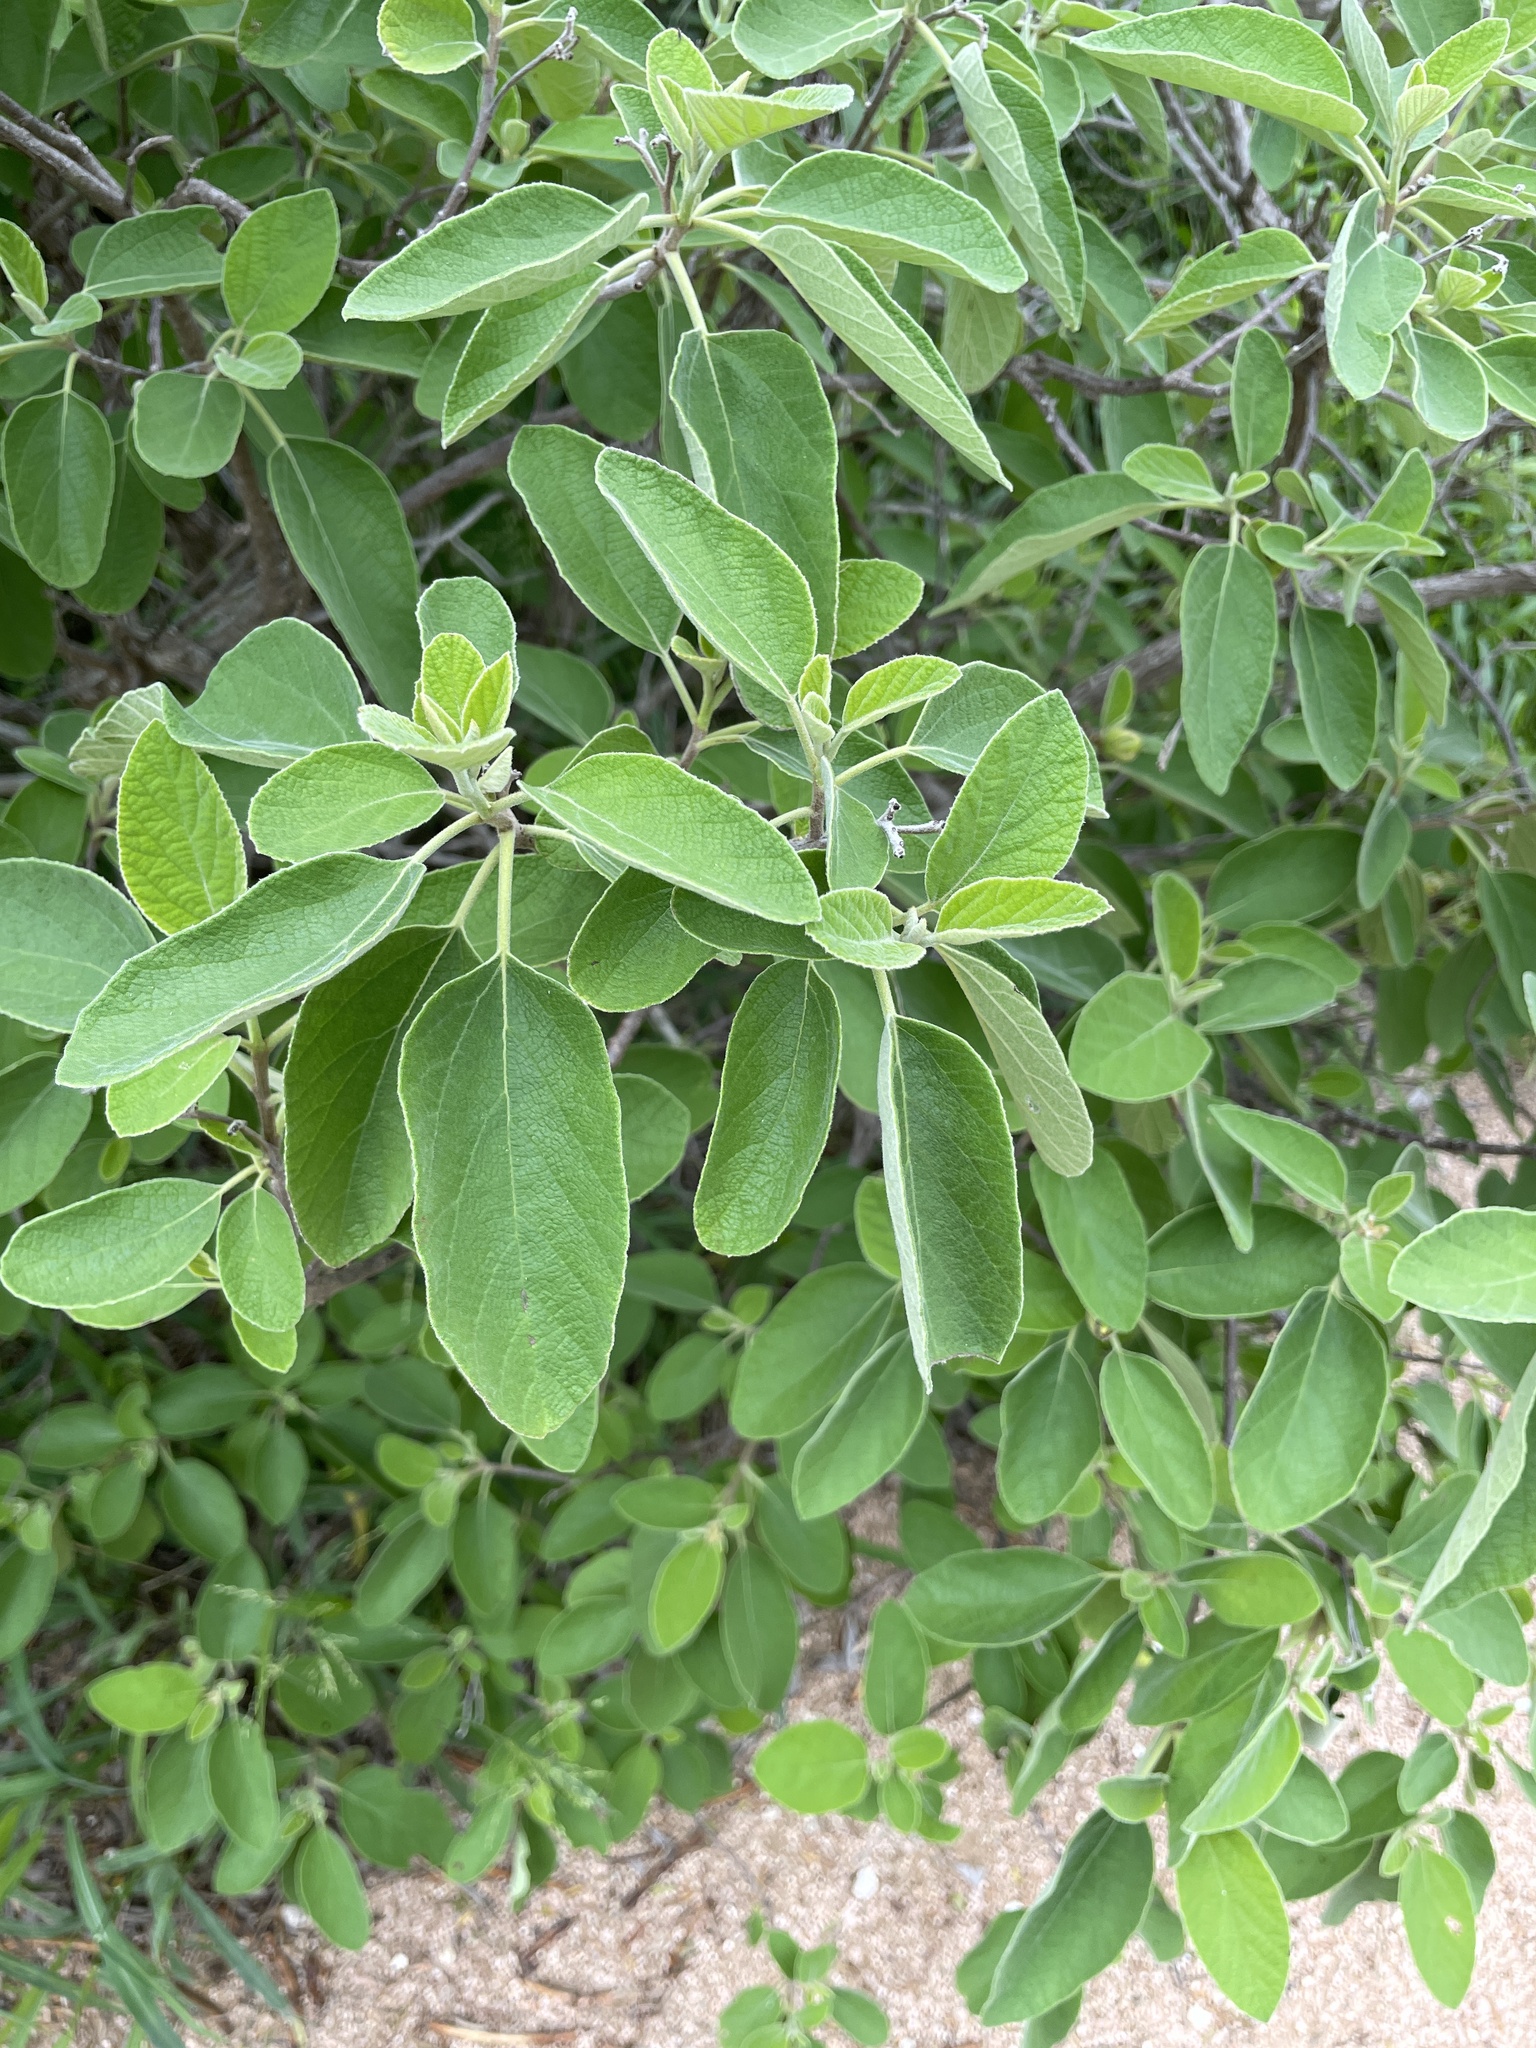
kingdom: Plantae
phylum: Tracheophyta
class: Magnoliopsida
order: Boraginales
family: Cordiaceae
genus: Cordia
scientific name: Cordia boissieri
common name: Mexican-olive
